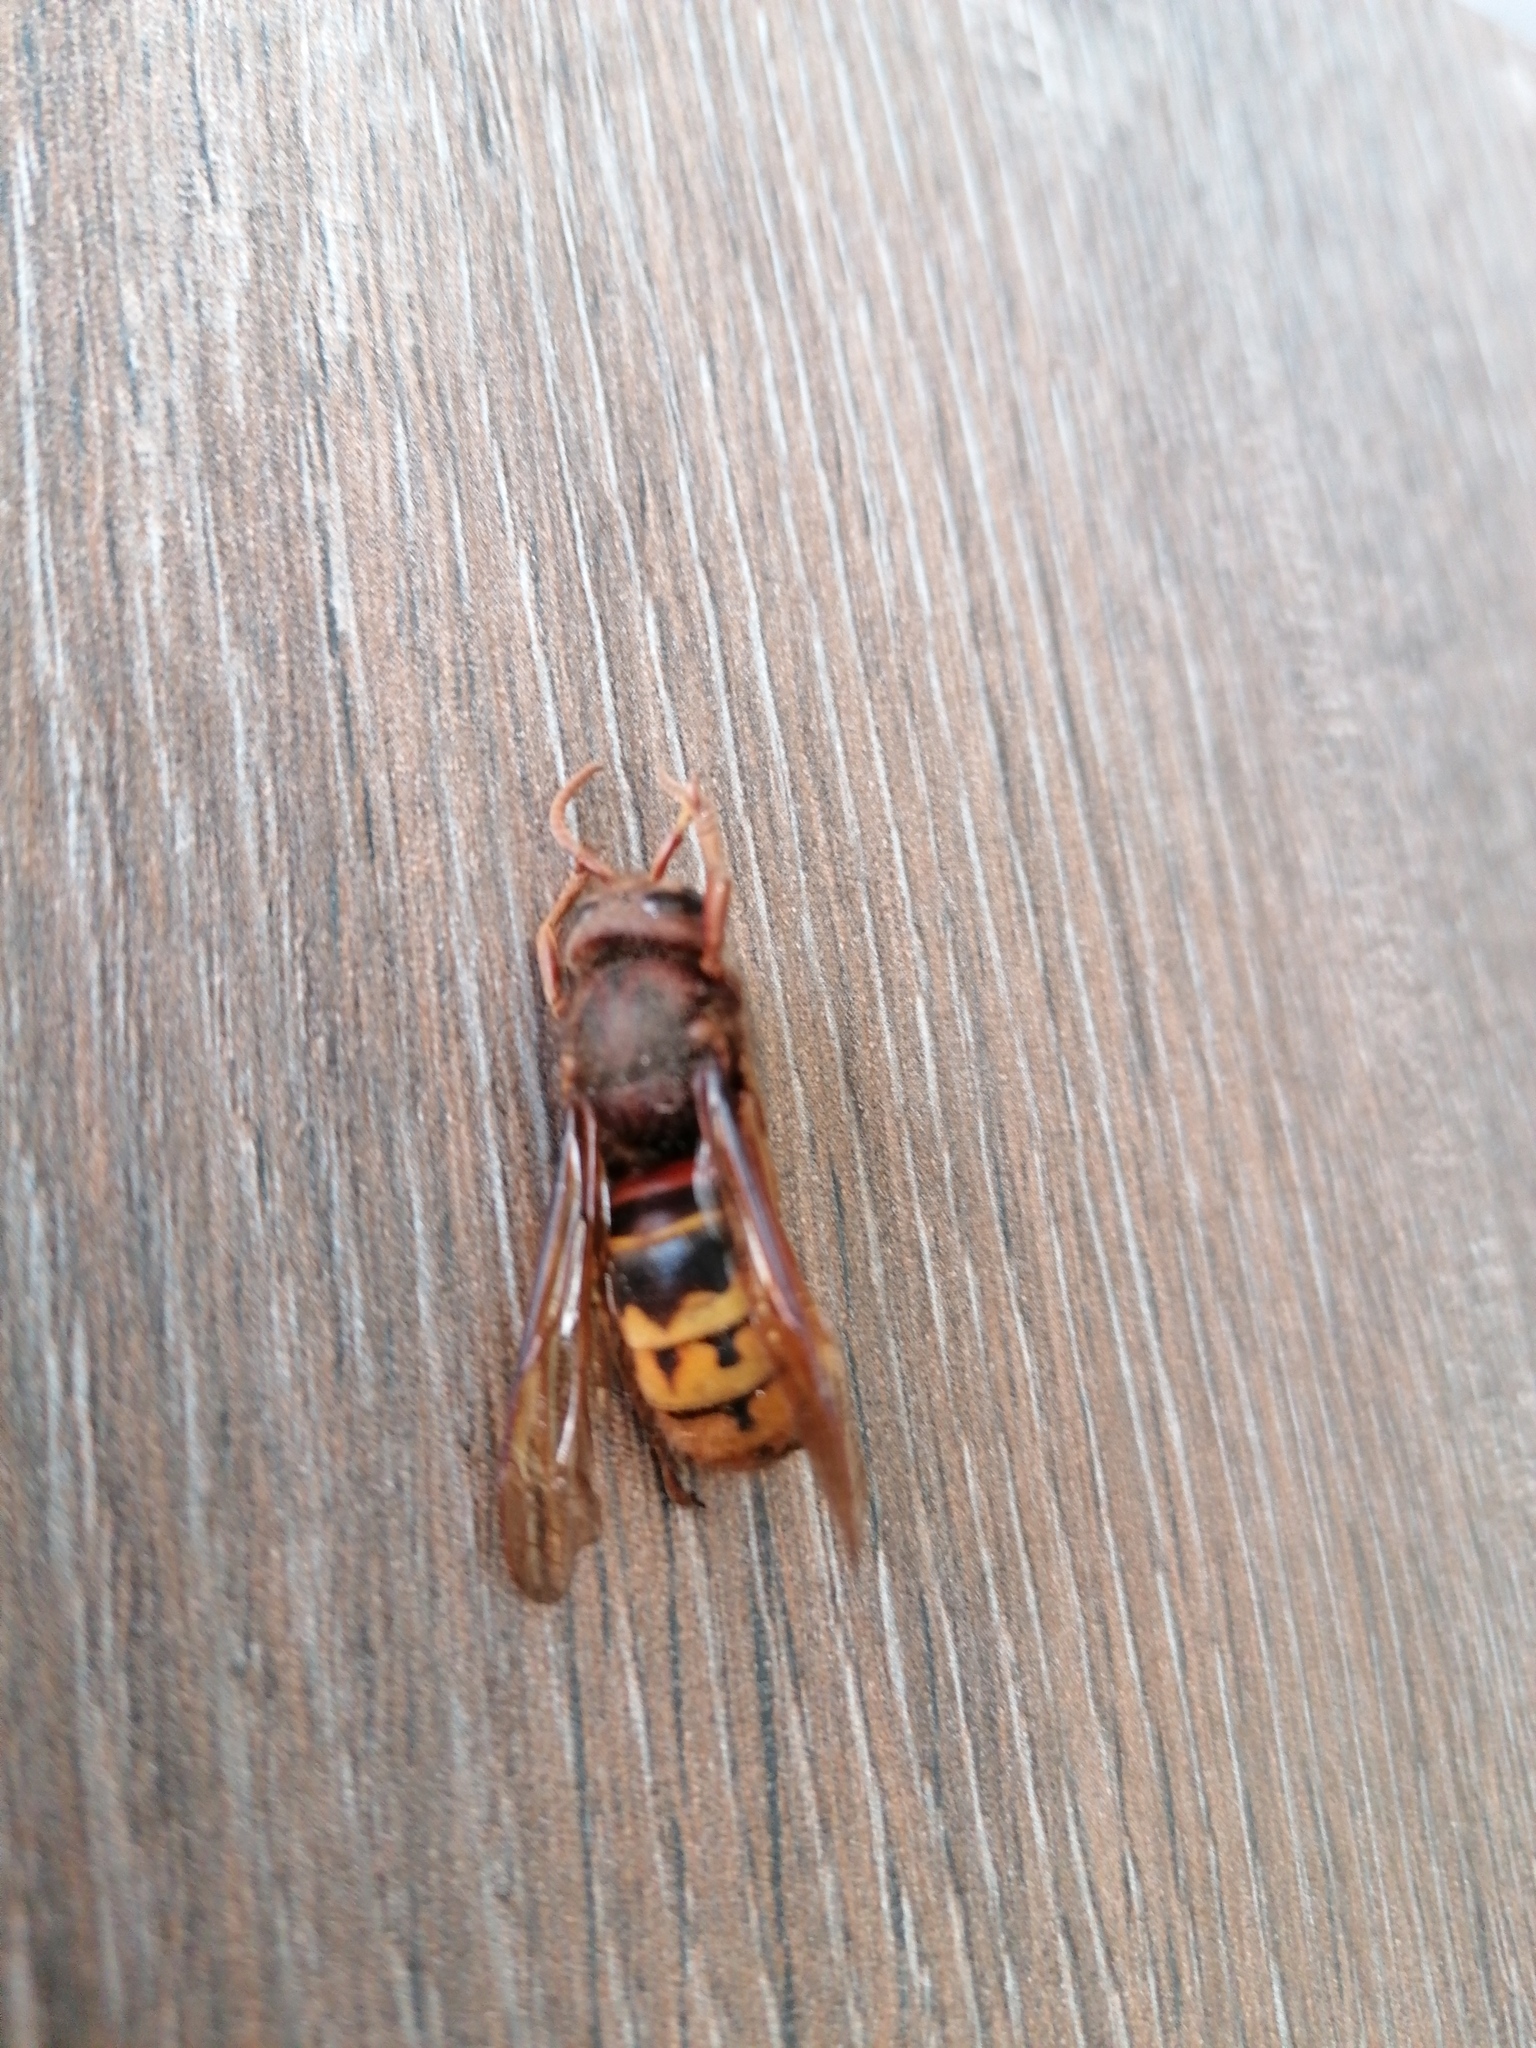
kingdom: Animalia
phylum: Arthropoda
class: Insecta
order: Hymenoptera
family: Vespidae
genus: Vespa
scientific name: Vespa crabro
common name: Hornet
